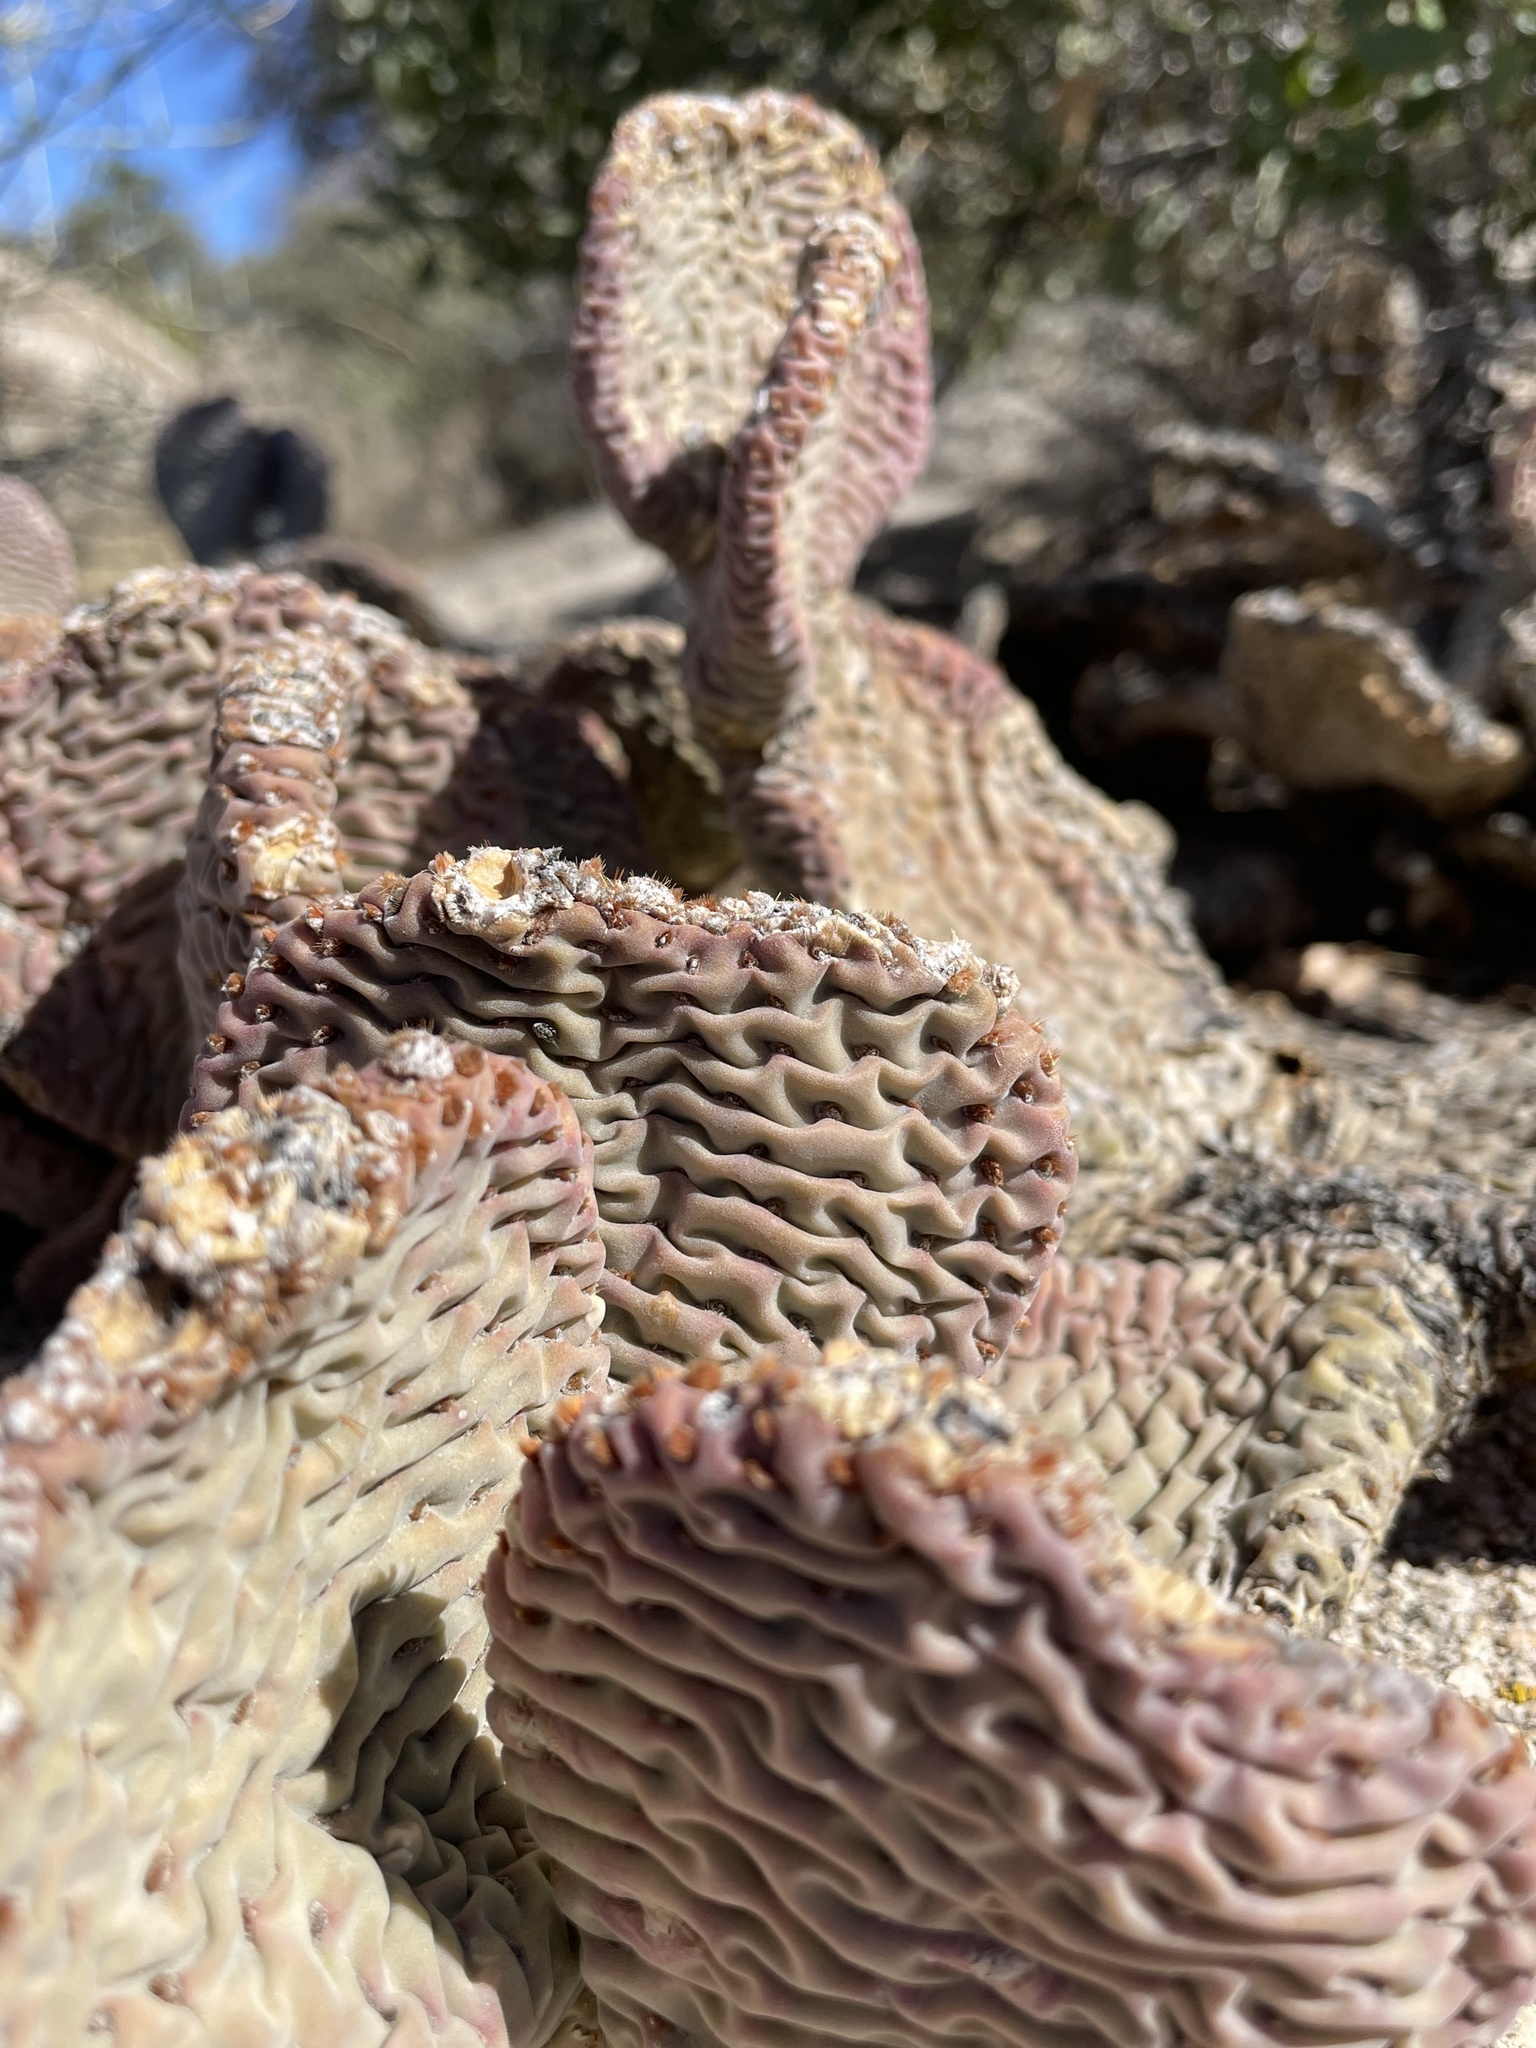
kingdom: Plantae
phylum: Tracheophyta
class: Magnoliopsida
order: Caryophyllales
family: Cactaceae
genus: Opuntia
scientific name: Opuntia basilaris
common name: Beavertail prickly-pear
